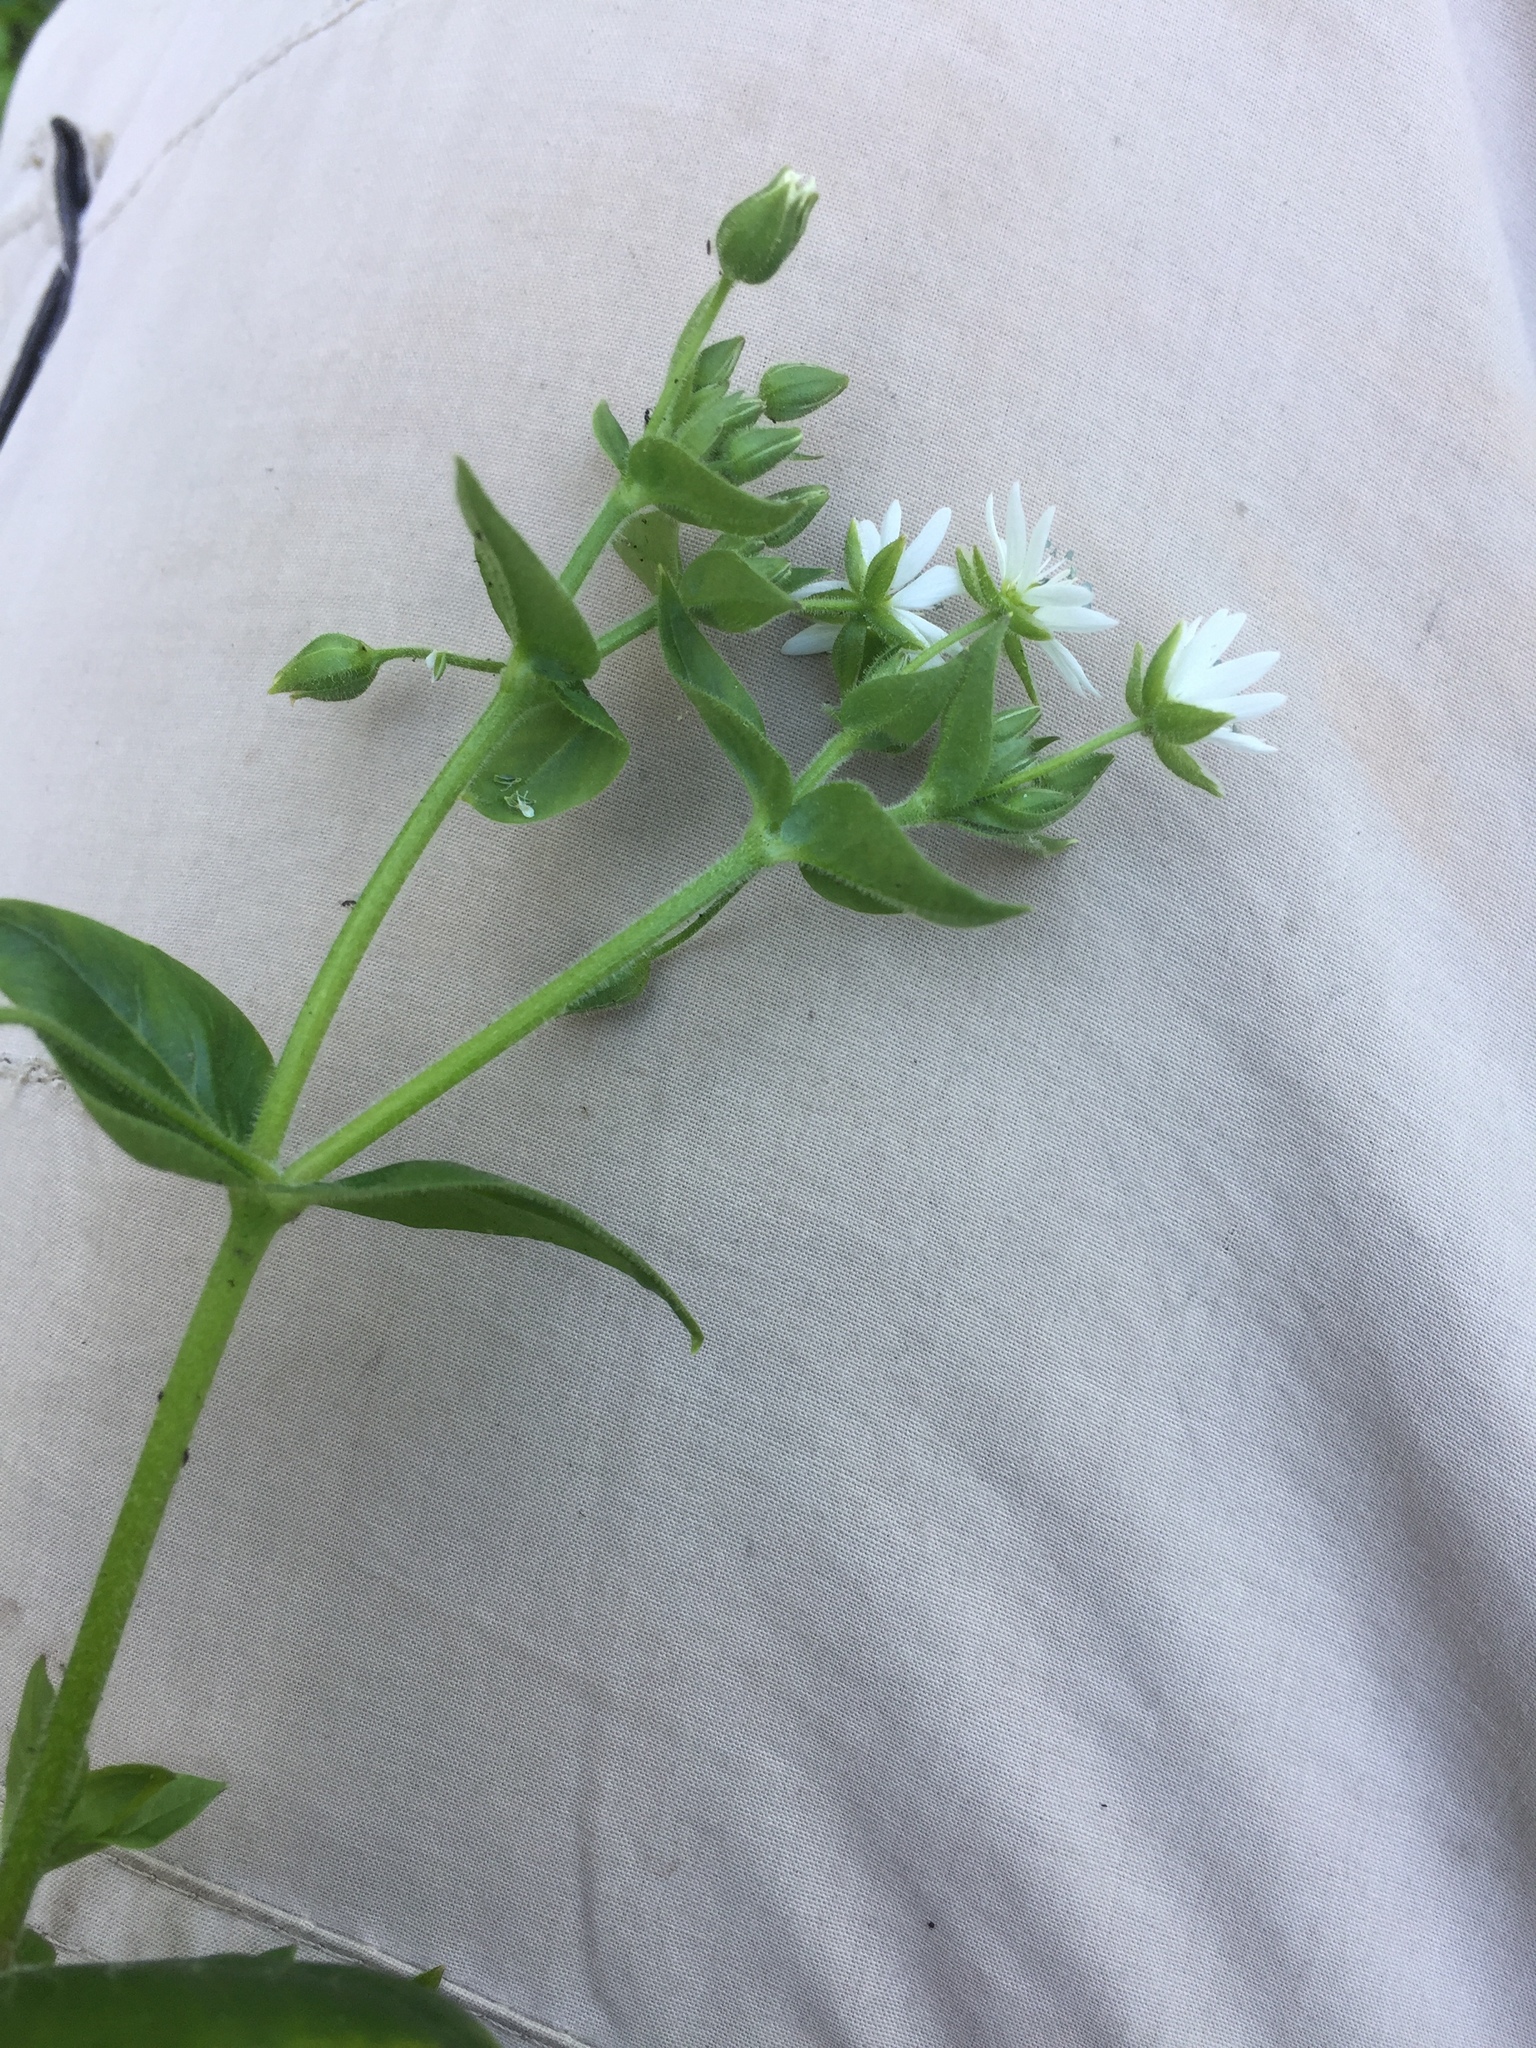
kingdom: Plantae
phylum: Tracheophyta
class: Magnoliopsida
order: Caryophyllales
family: Caryophyllaceae
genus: Stellaria
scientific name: Stellaria aquatica
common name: Water chickweed
